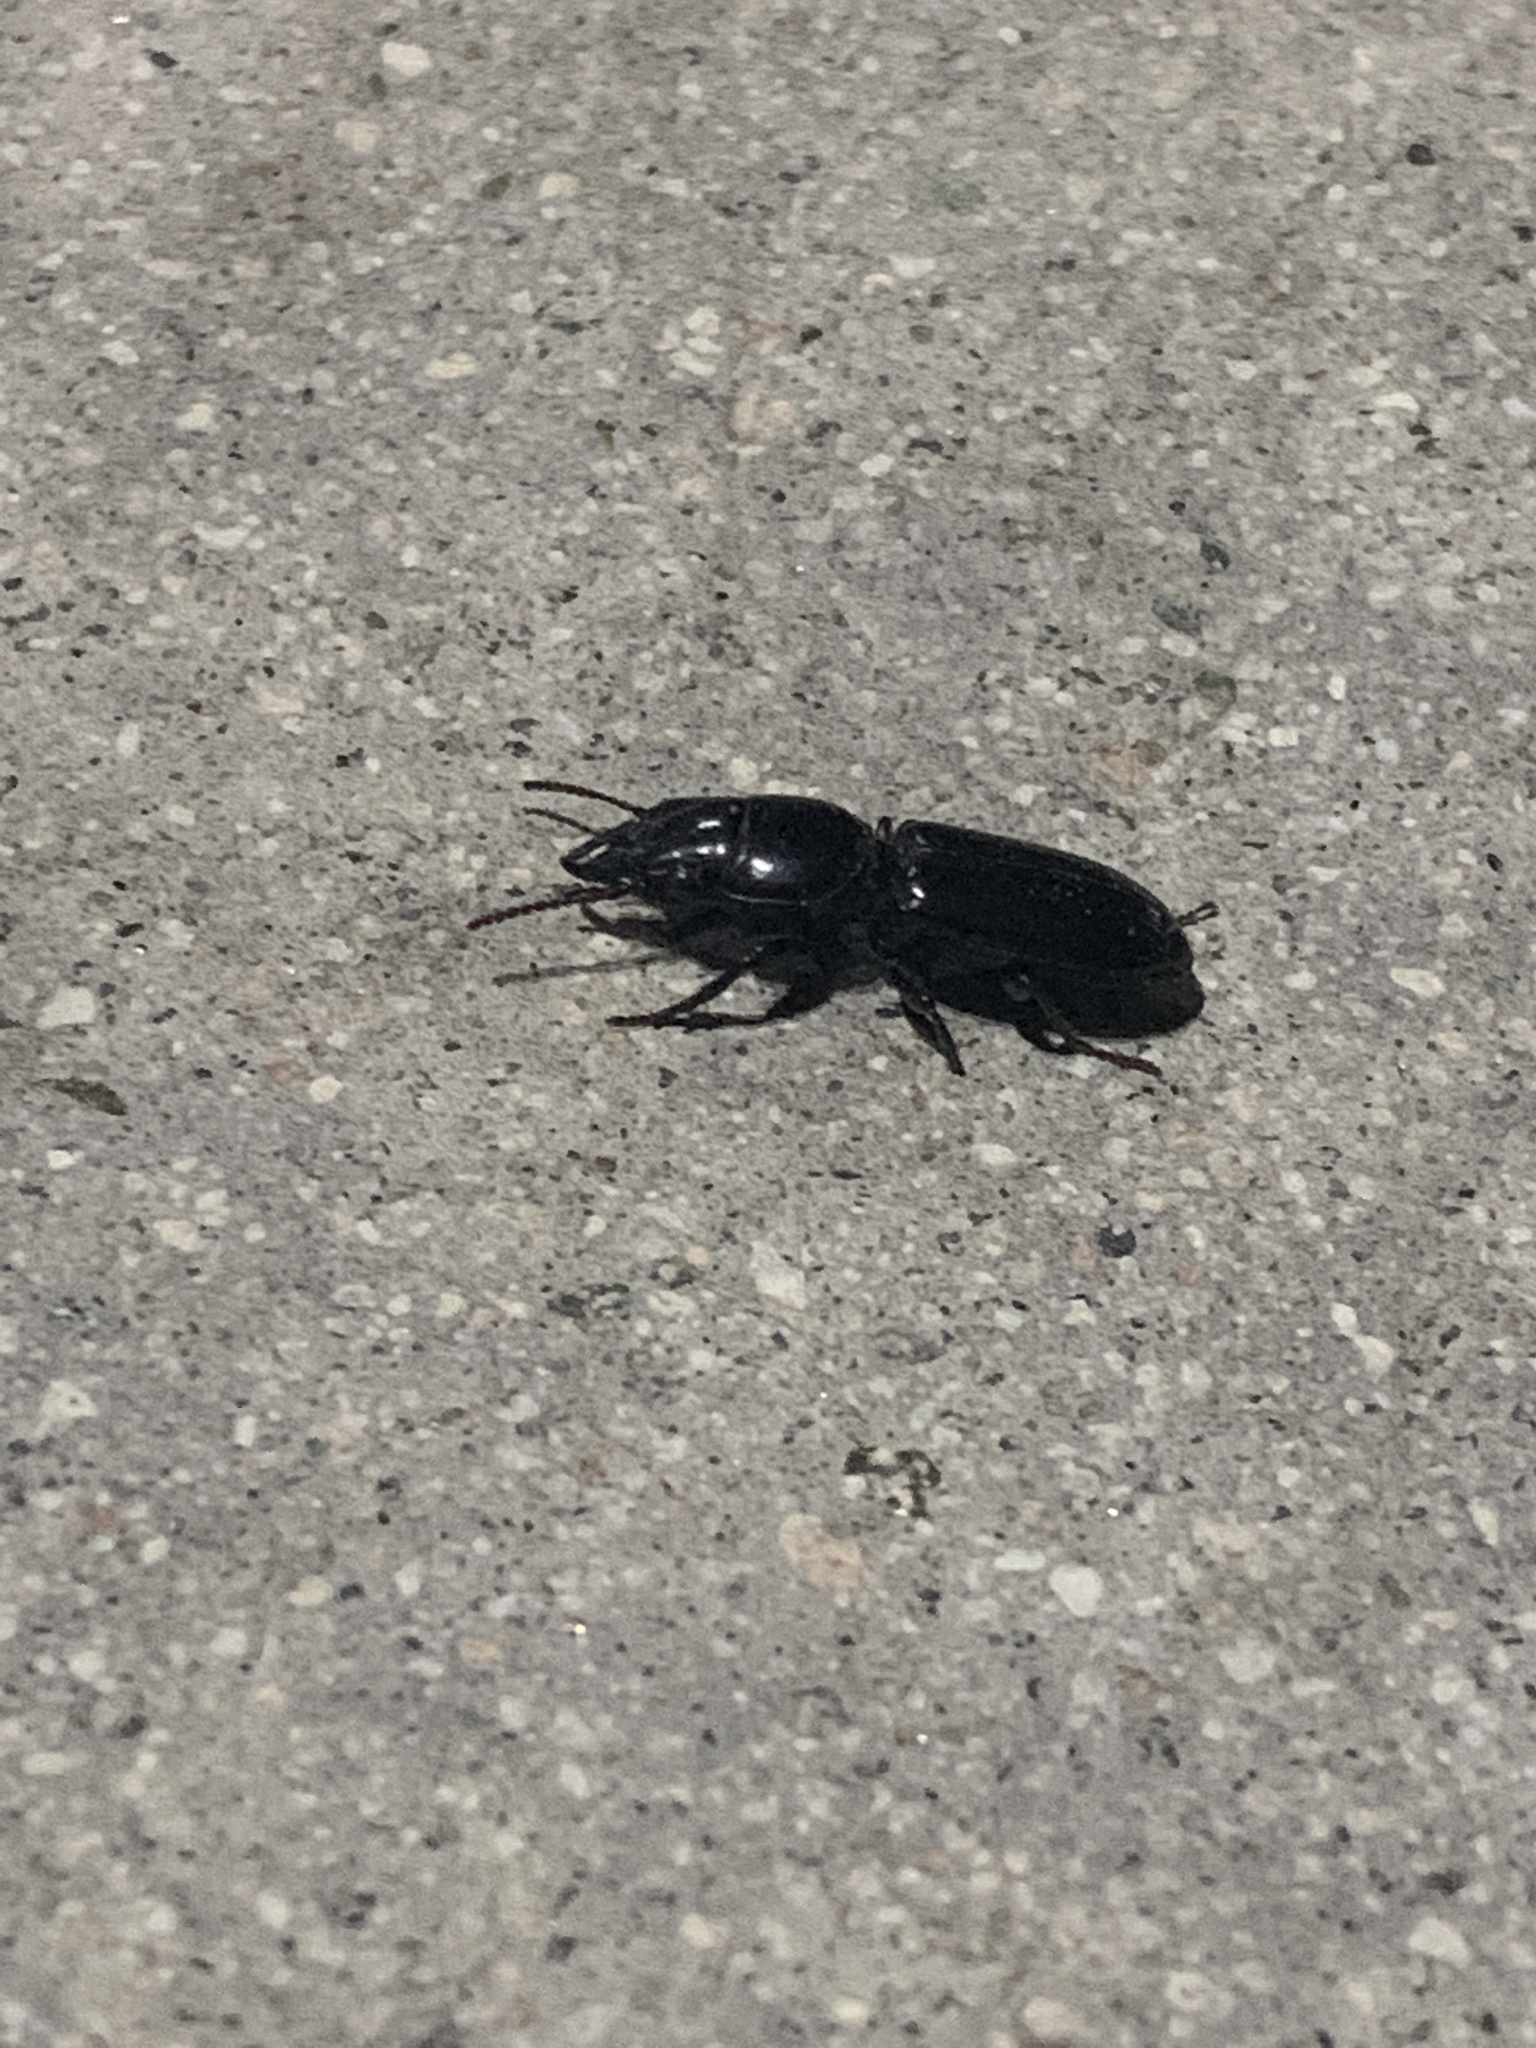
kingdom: Animalia
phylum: Arthropoda
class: Insecta
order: Coleoptera
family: Carabidae
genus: Scarites
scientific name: Scarites subterraneus
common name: Big-headed ground beetle
